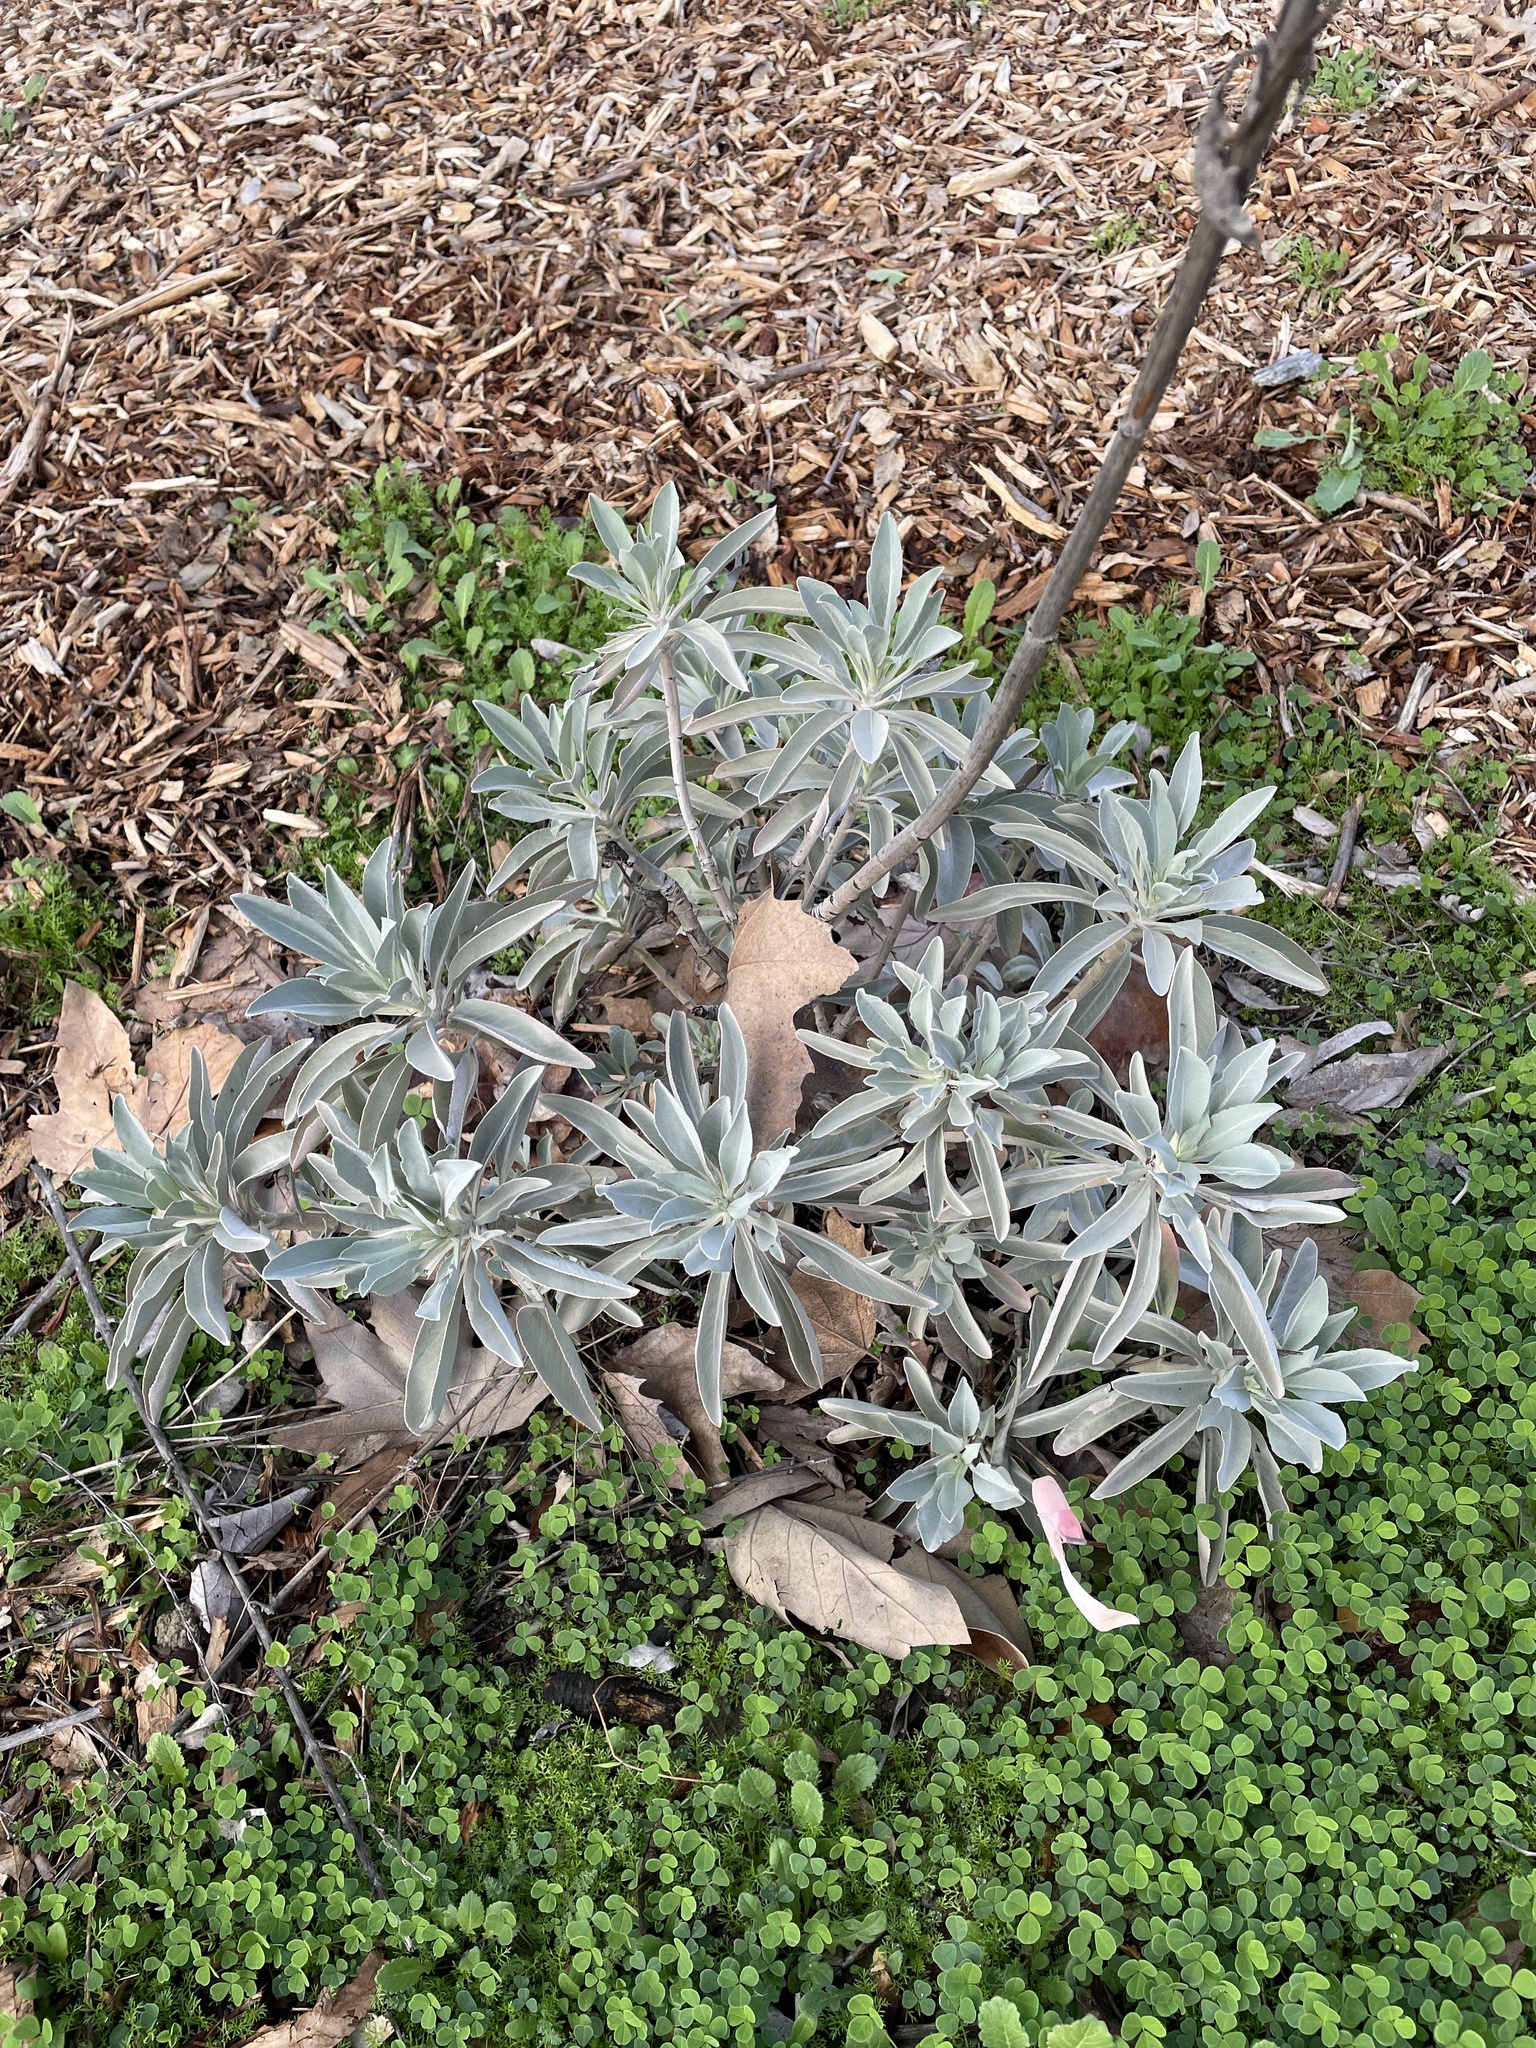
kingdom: Plantae
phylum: Tracheophyta
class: Magnoliopsida
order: Lamiales
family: Lamiaceae
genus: Salvia
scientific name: Salvia apiana
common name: White sage
